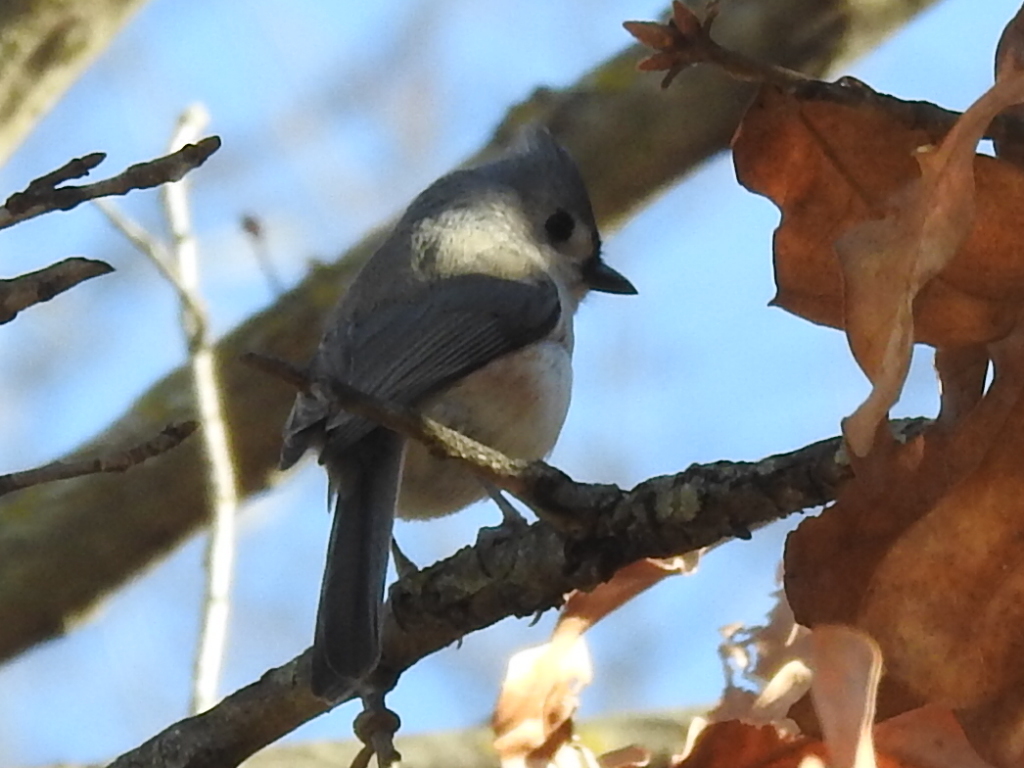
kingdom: Animalia
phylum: Chordata
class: Aves
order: Passeriformes
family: Paridae
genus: Baeolophus
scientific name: Baeolophus bicolor
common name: Tufted titmouse
